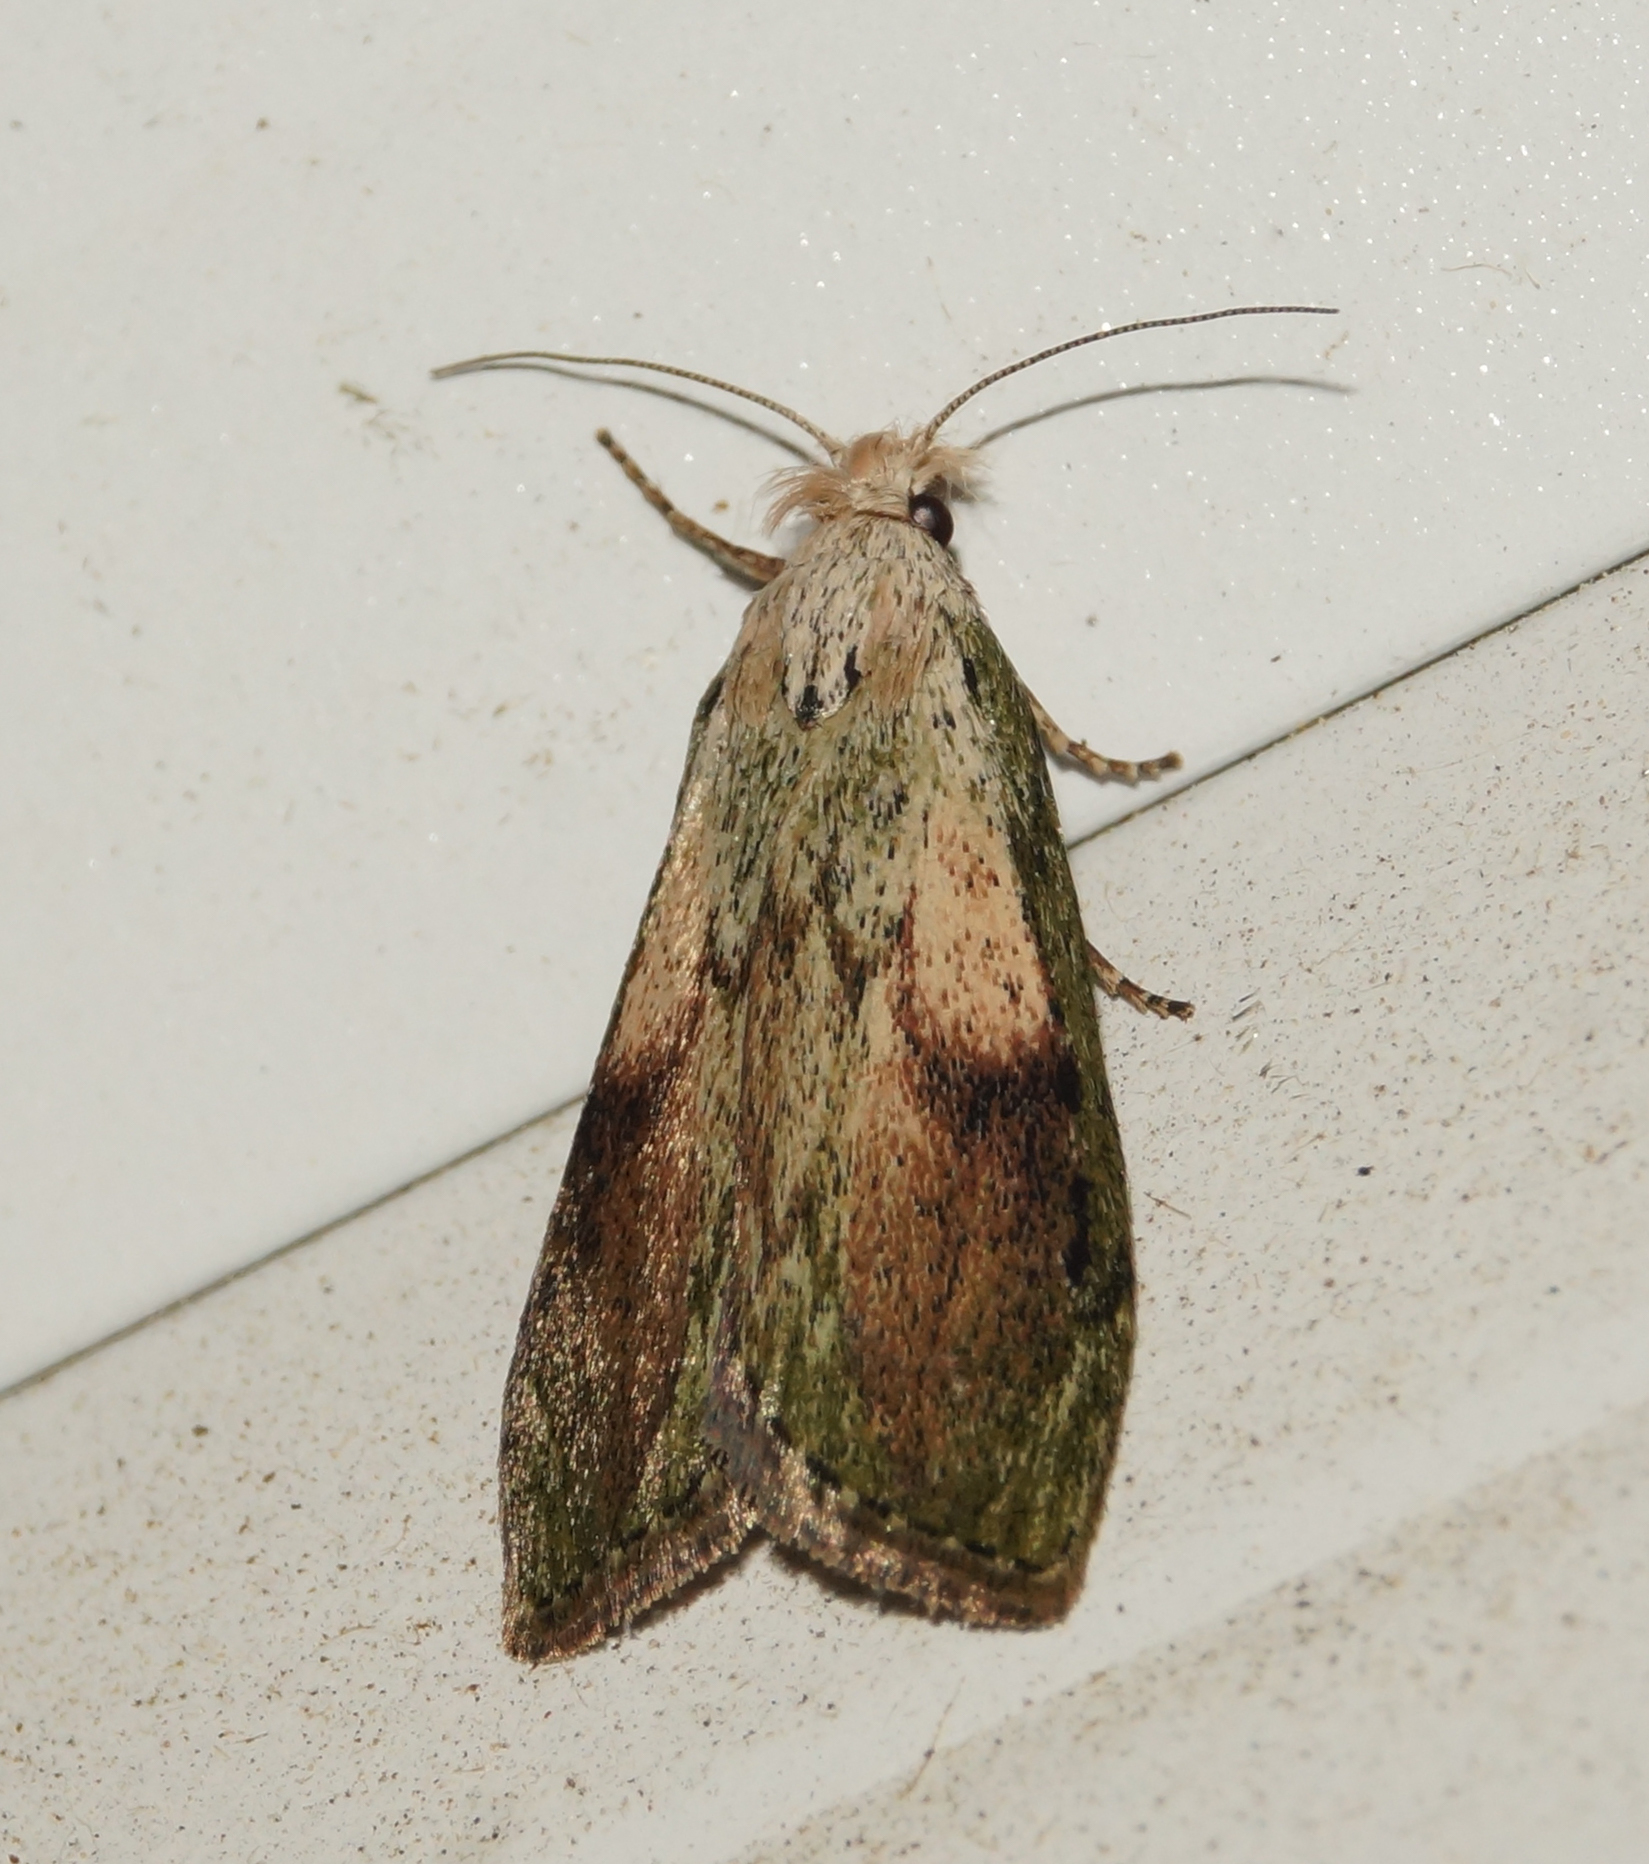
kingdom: Animalia
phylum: Arthropoda
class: Insecta
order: Lepidoptera
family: Pyralidae
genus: Aphomia
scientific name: Aphomia sociella
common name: Bee moth
